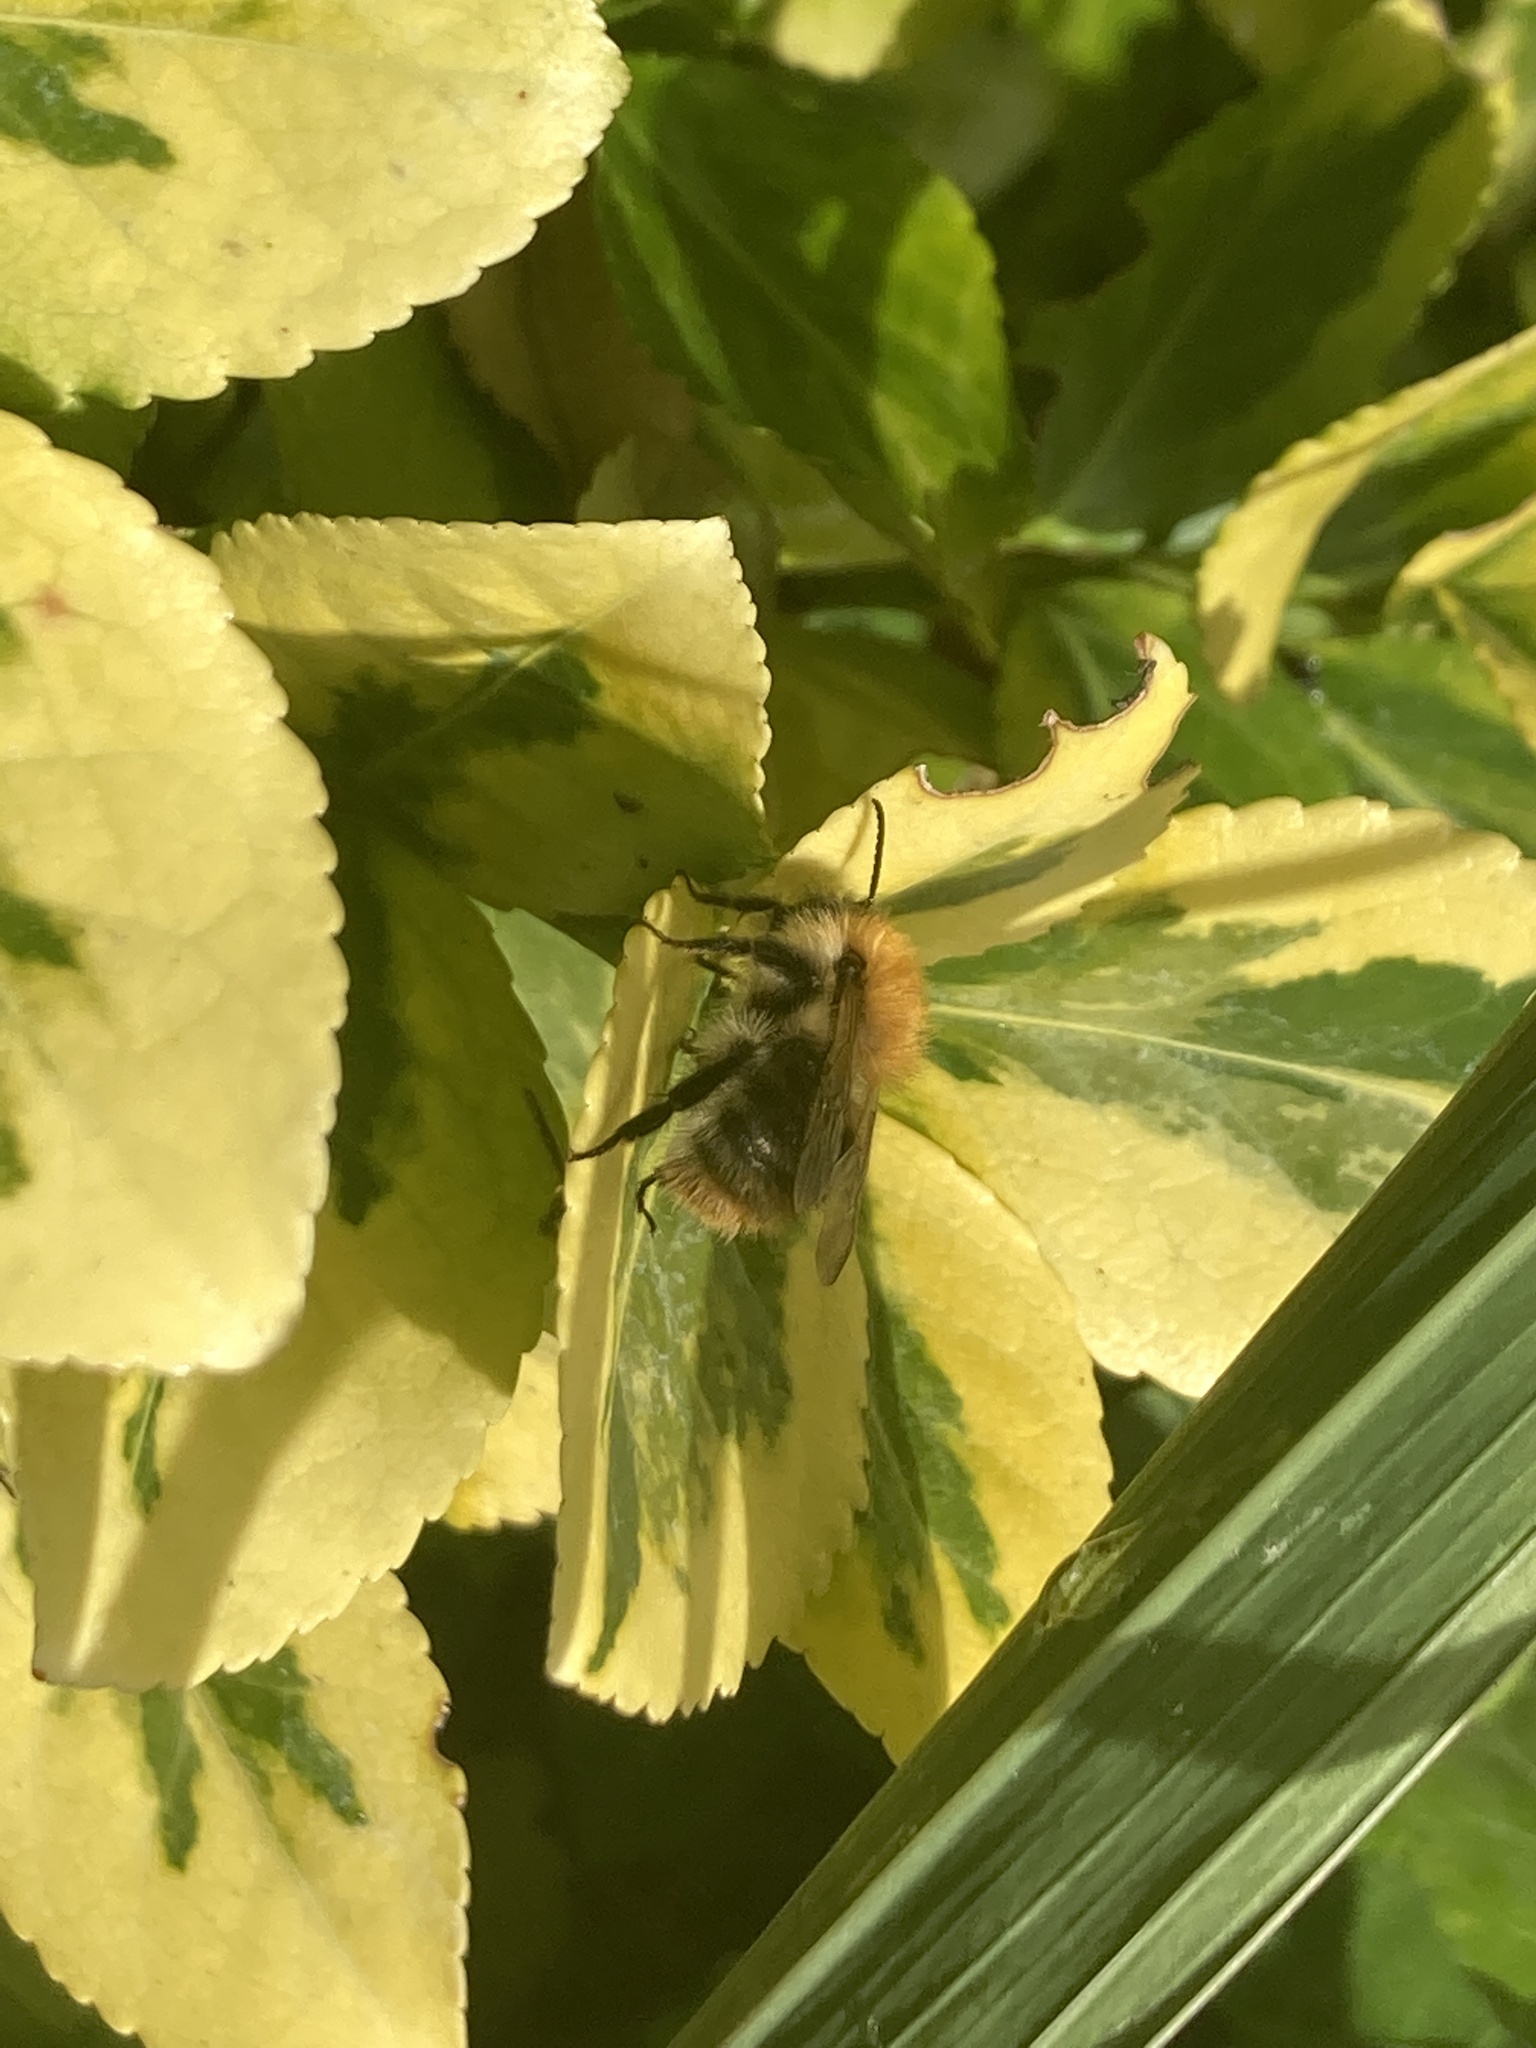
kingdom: Animalia
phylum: Arthropoda
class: Insecta
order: Hymenoptera
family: Apidae
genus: Bombus
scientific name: Bombus pascuorum
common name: Common carder bee
